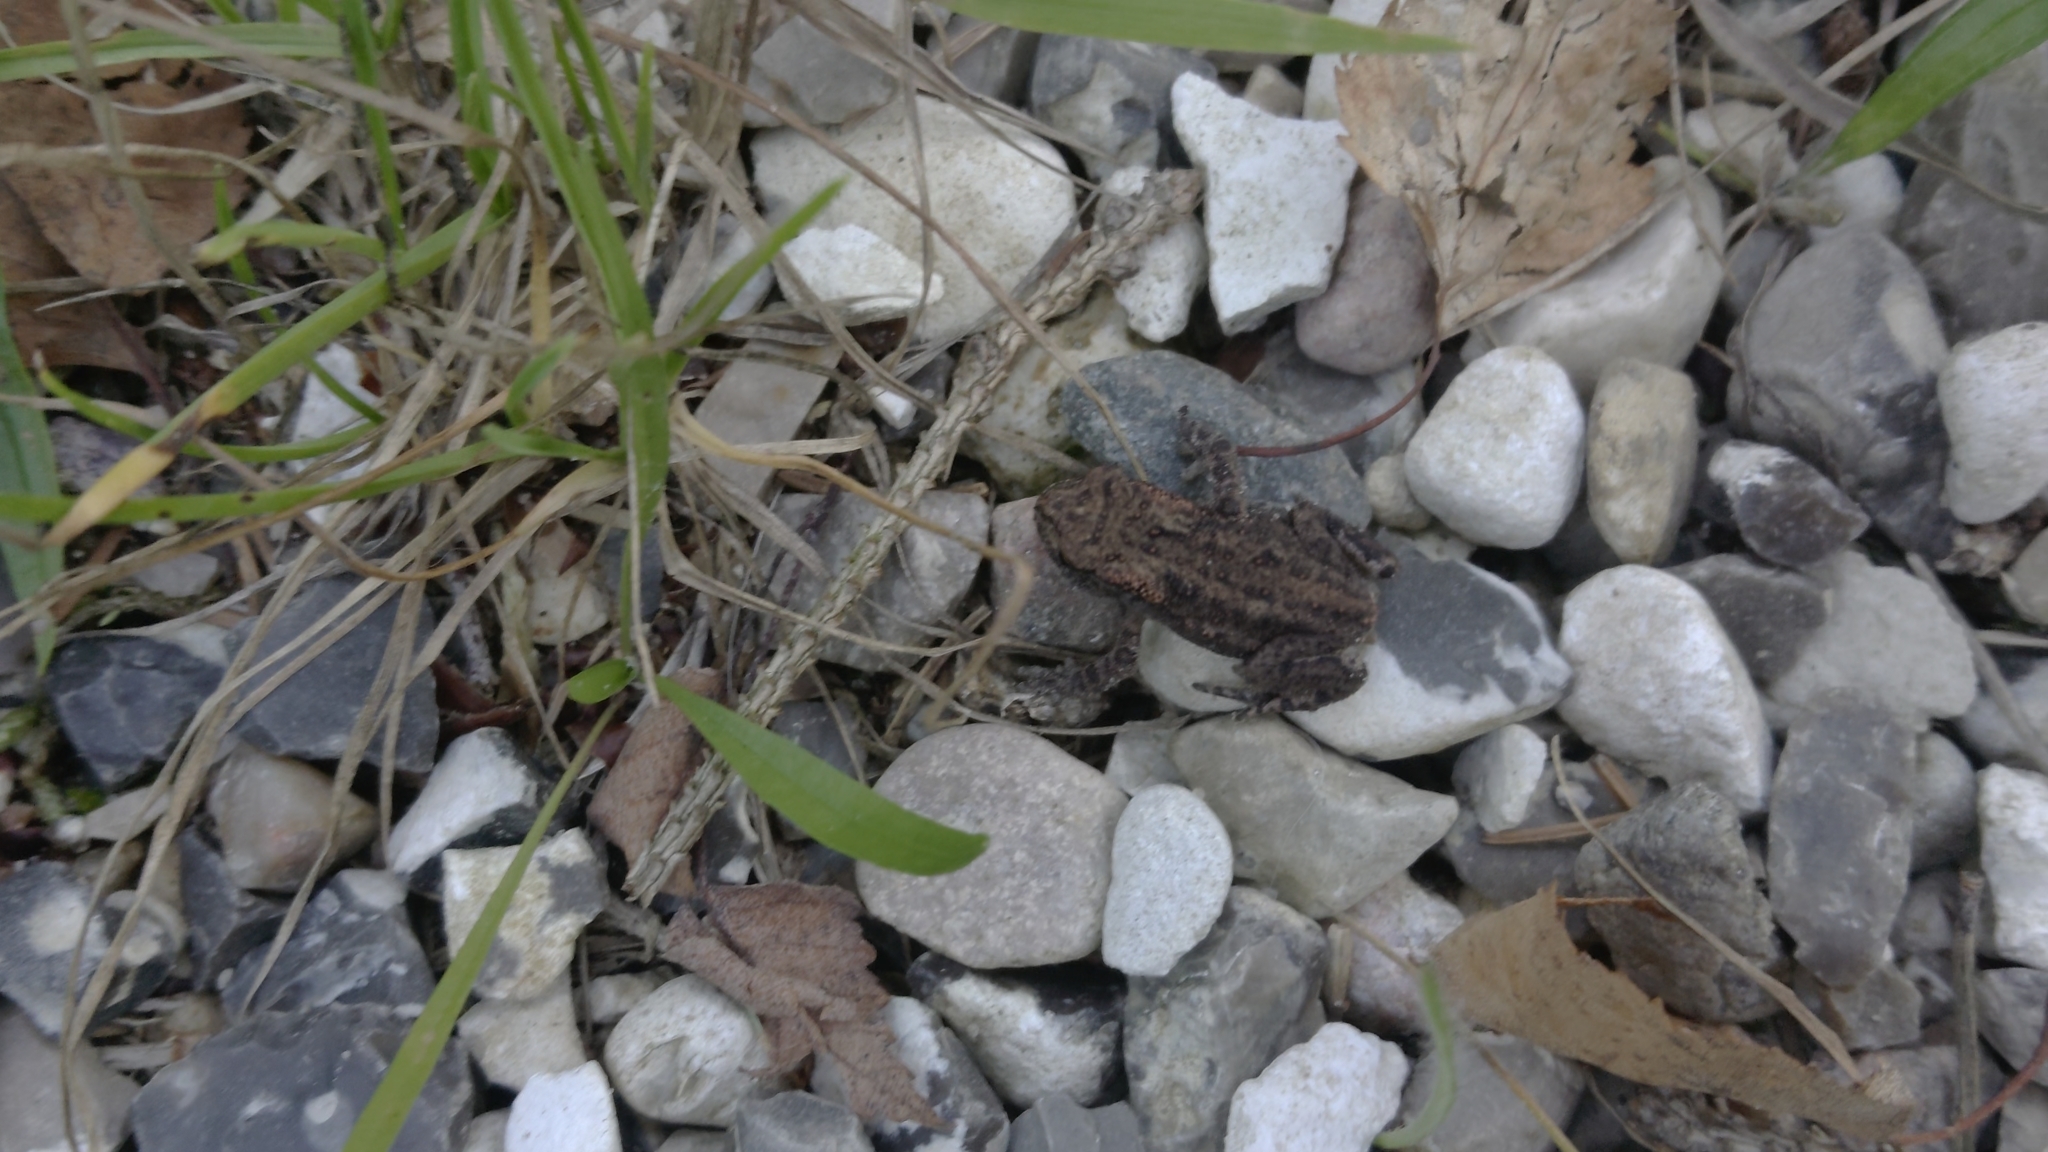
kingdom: Animalia
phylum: Chordata
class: Amphibia
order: Anura
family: Bufonidae
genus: Bufo
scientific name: Bufo bufo
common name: Common toad
